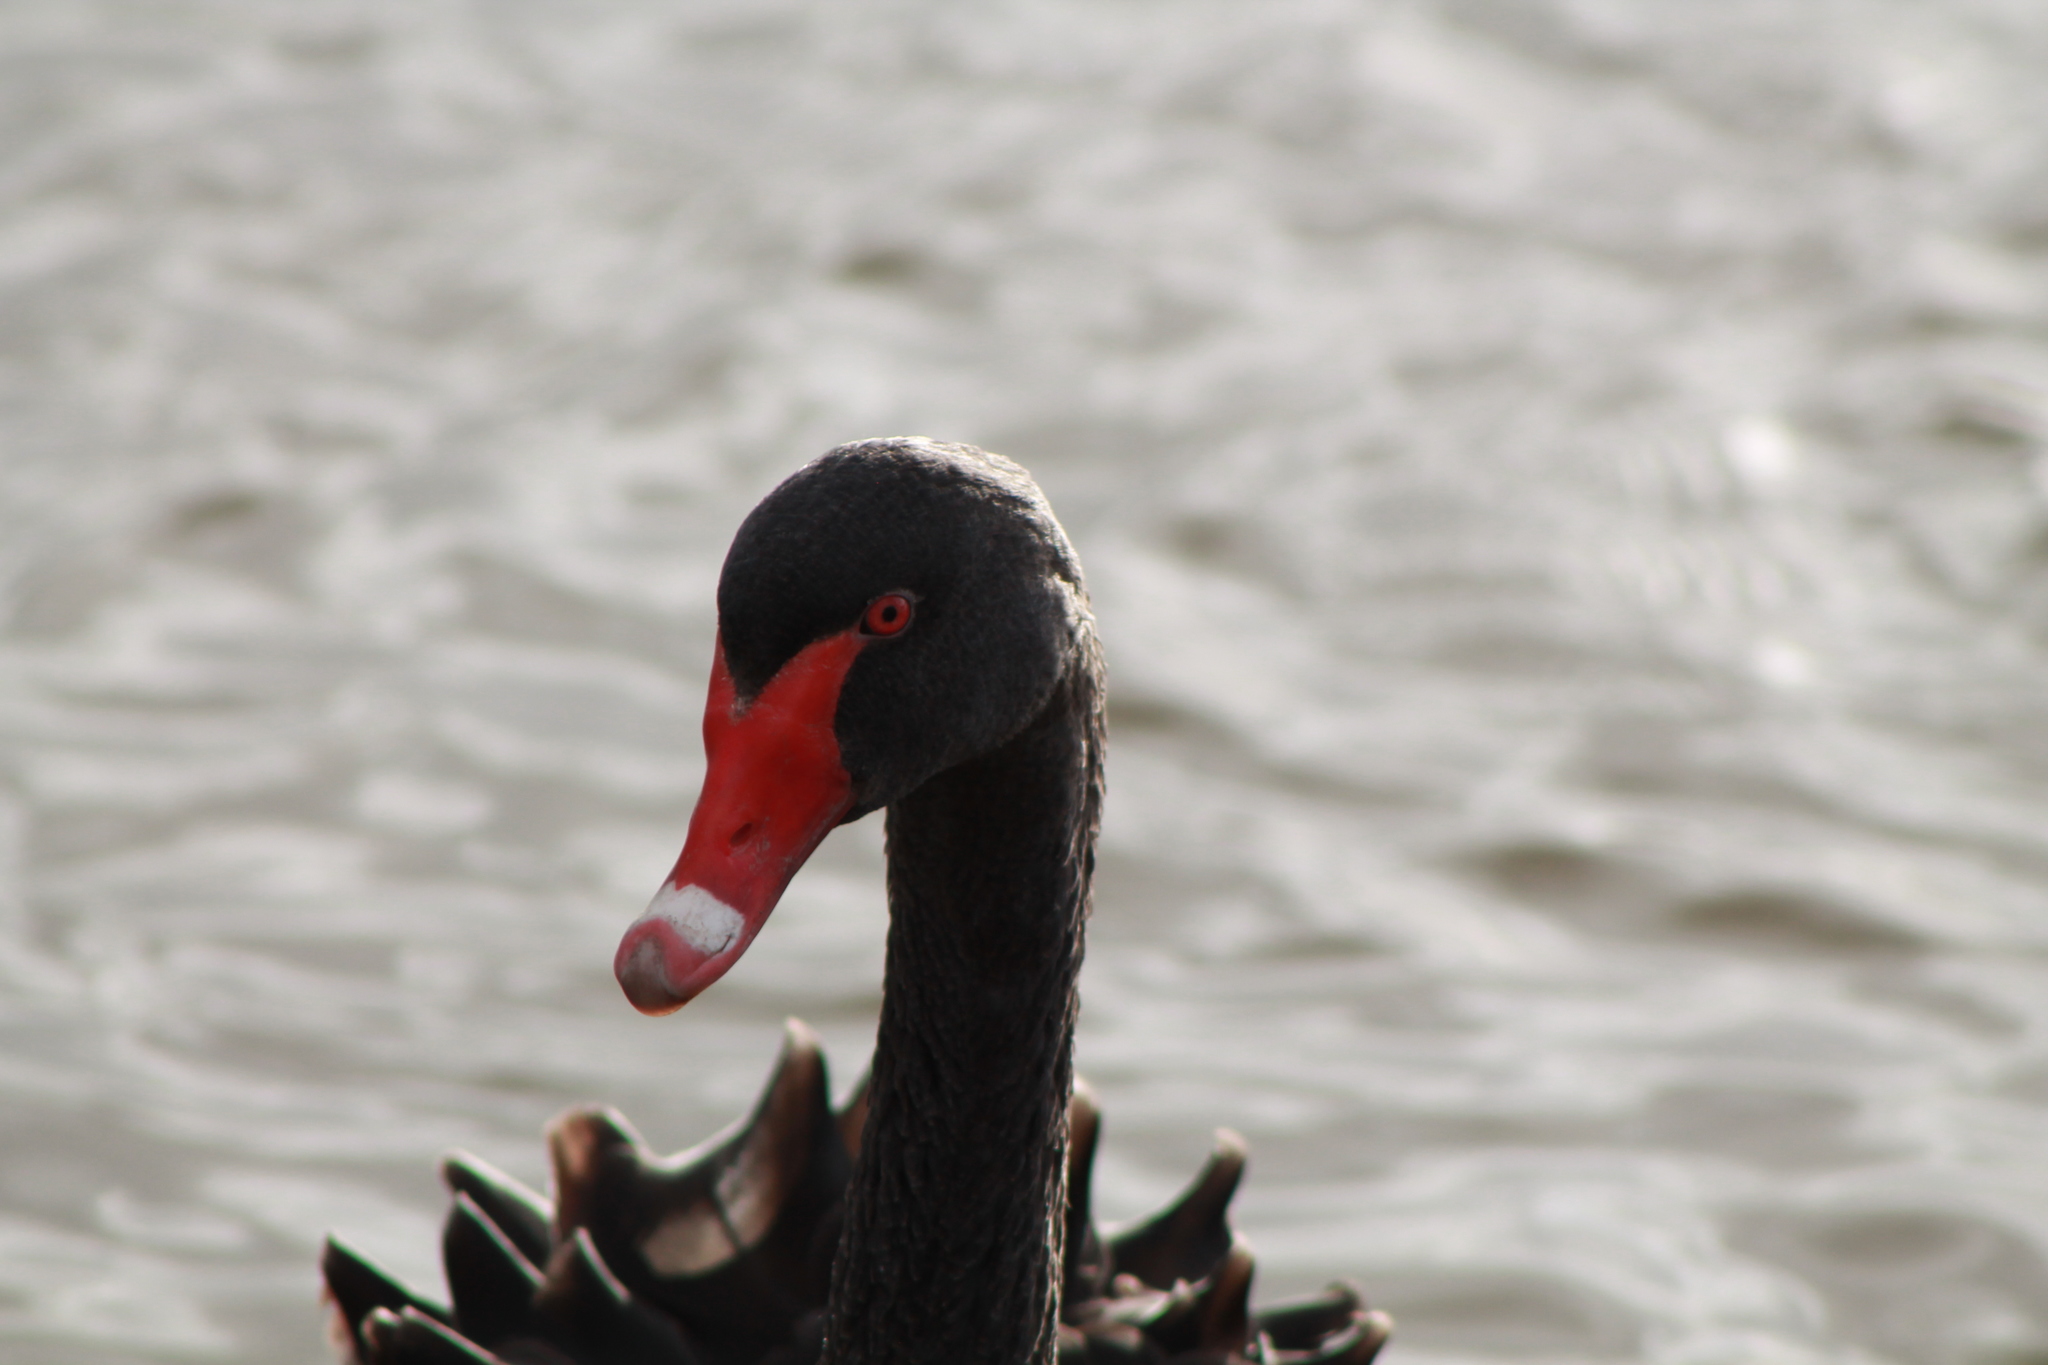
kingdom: Animalia
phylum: Chordata
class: Aves
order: Anseriformes
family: Anatidae
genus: Cygnus
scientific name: Cygnus atratus
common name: Black swan
